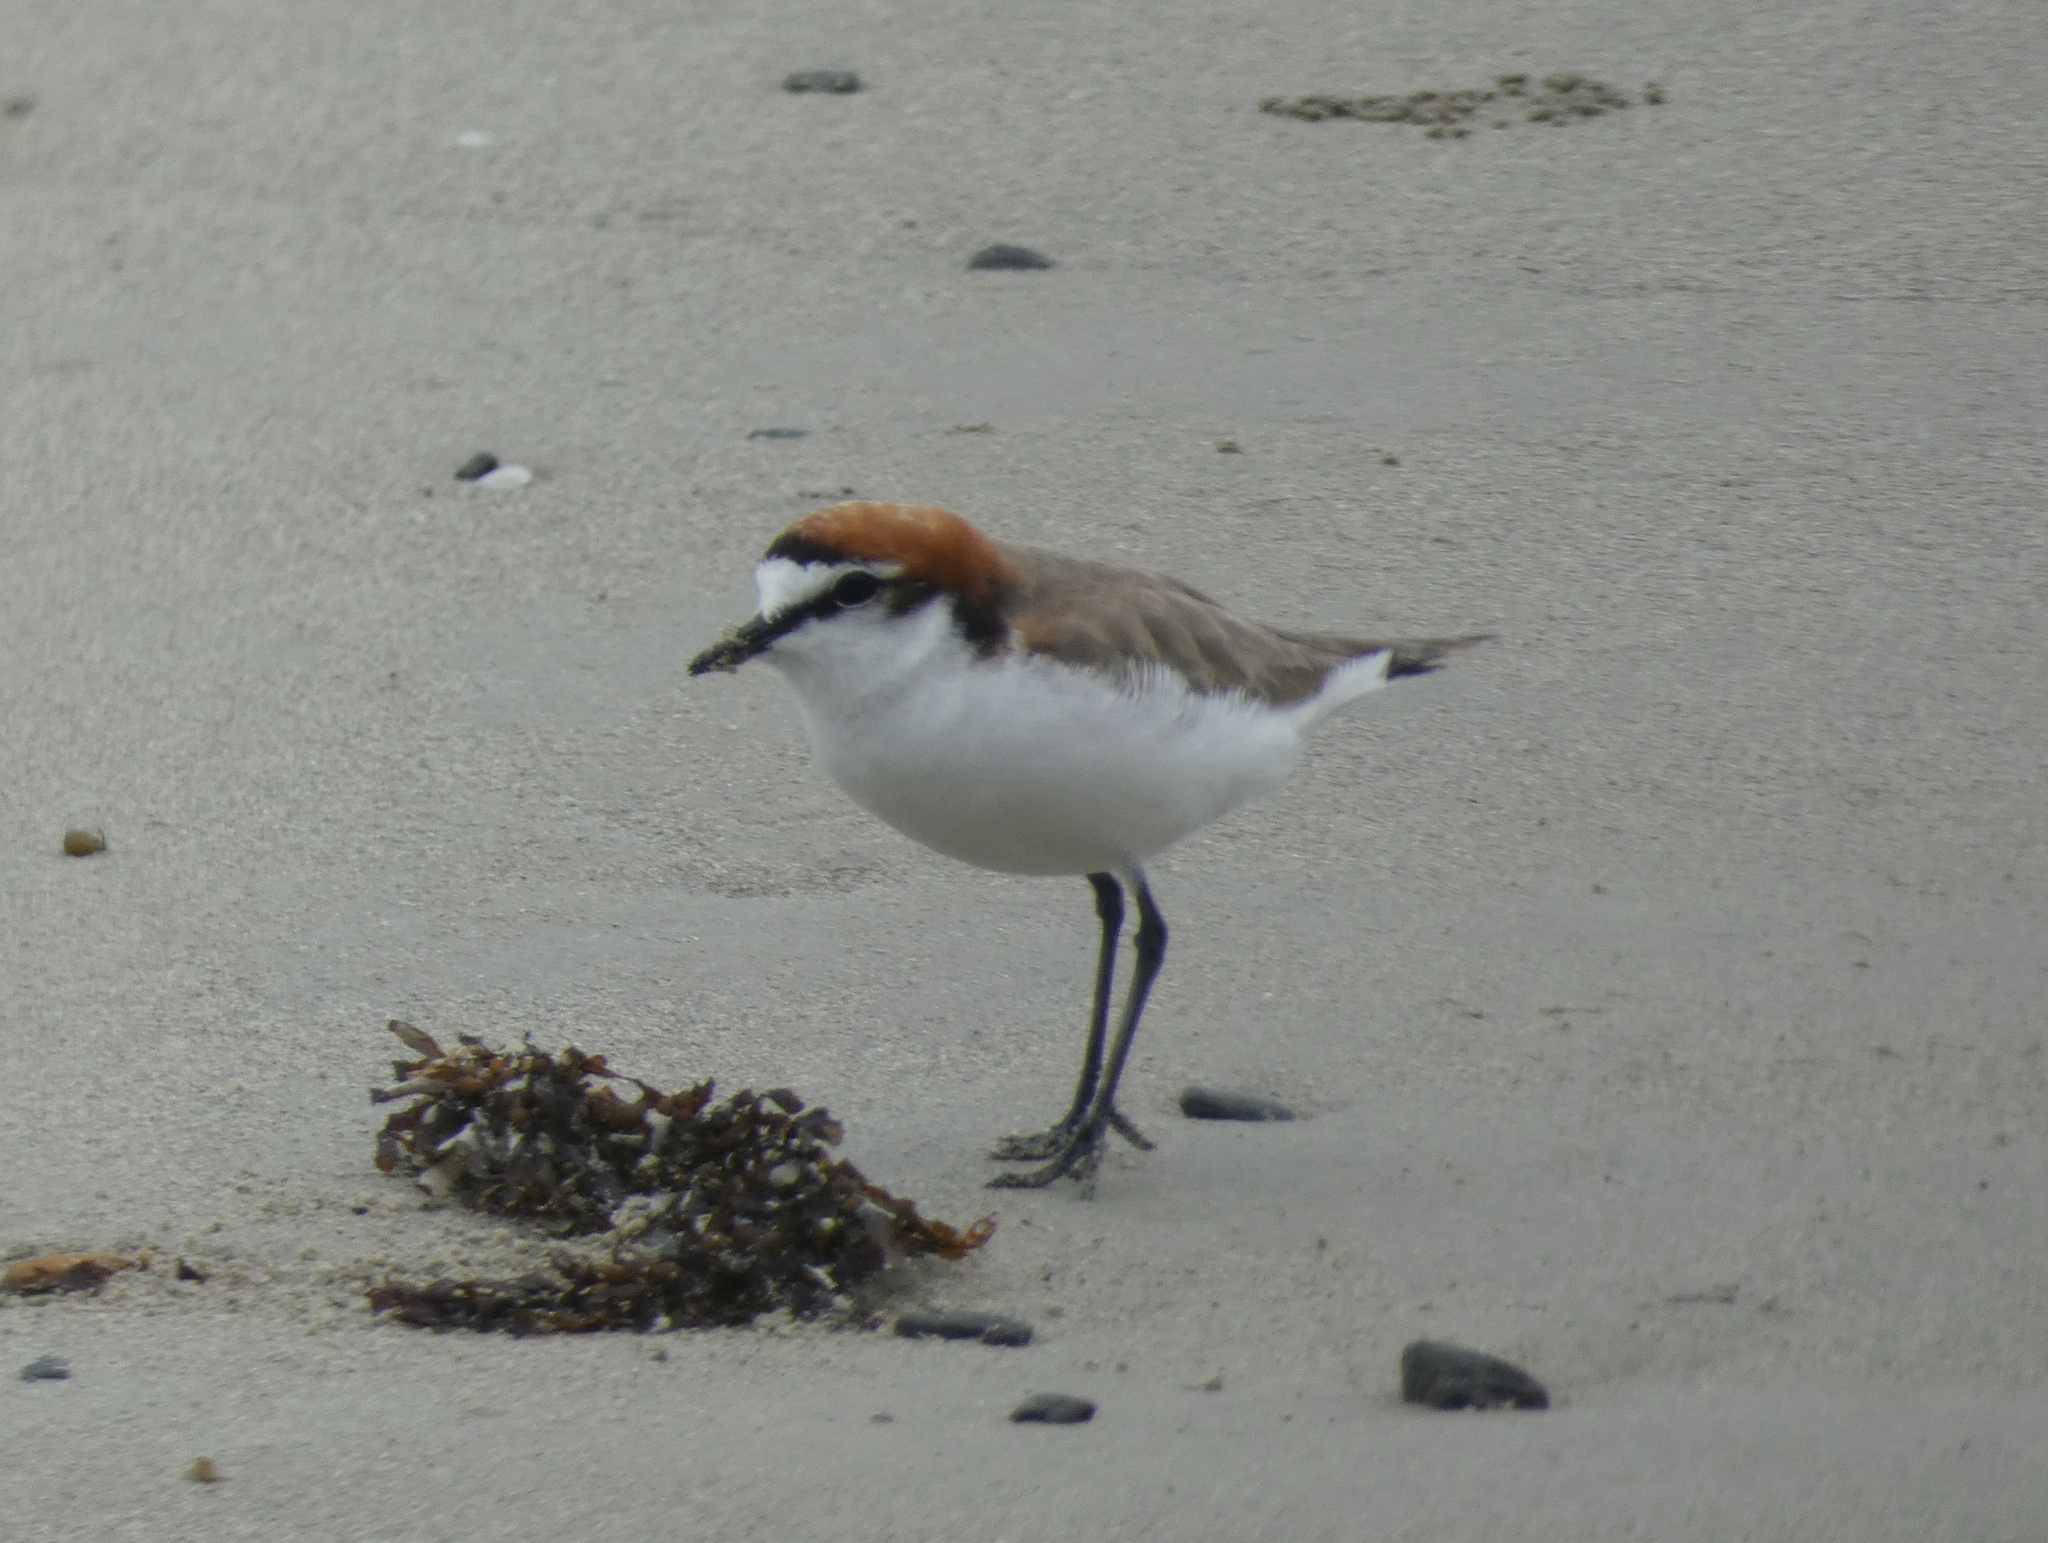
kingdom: Animalia
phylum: Chordata
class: Aves
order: Charadriiformes
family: Charadriidae
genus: Anarhynchus
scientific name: Anarhynchus
